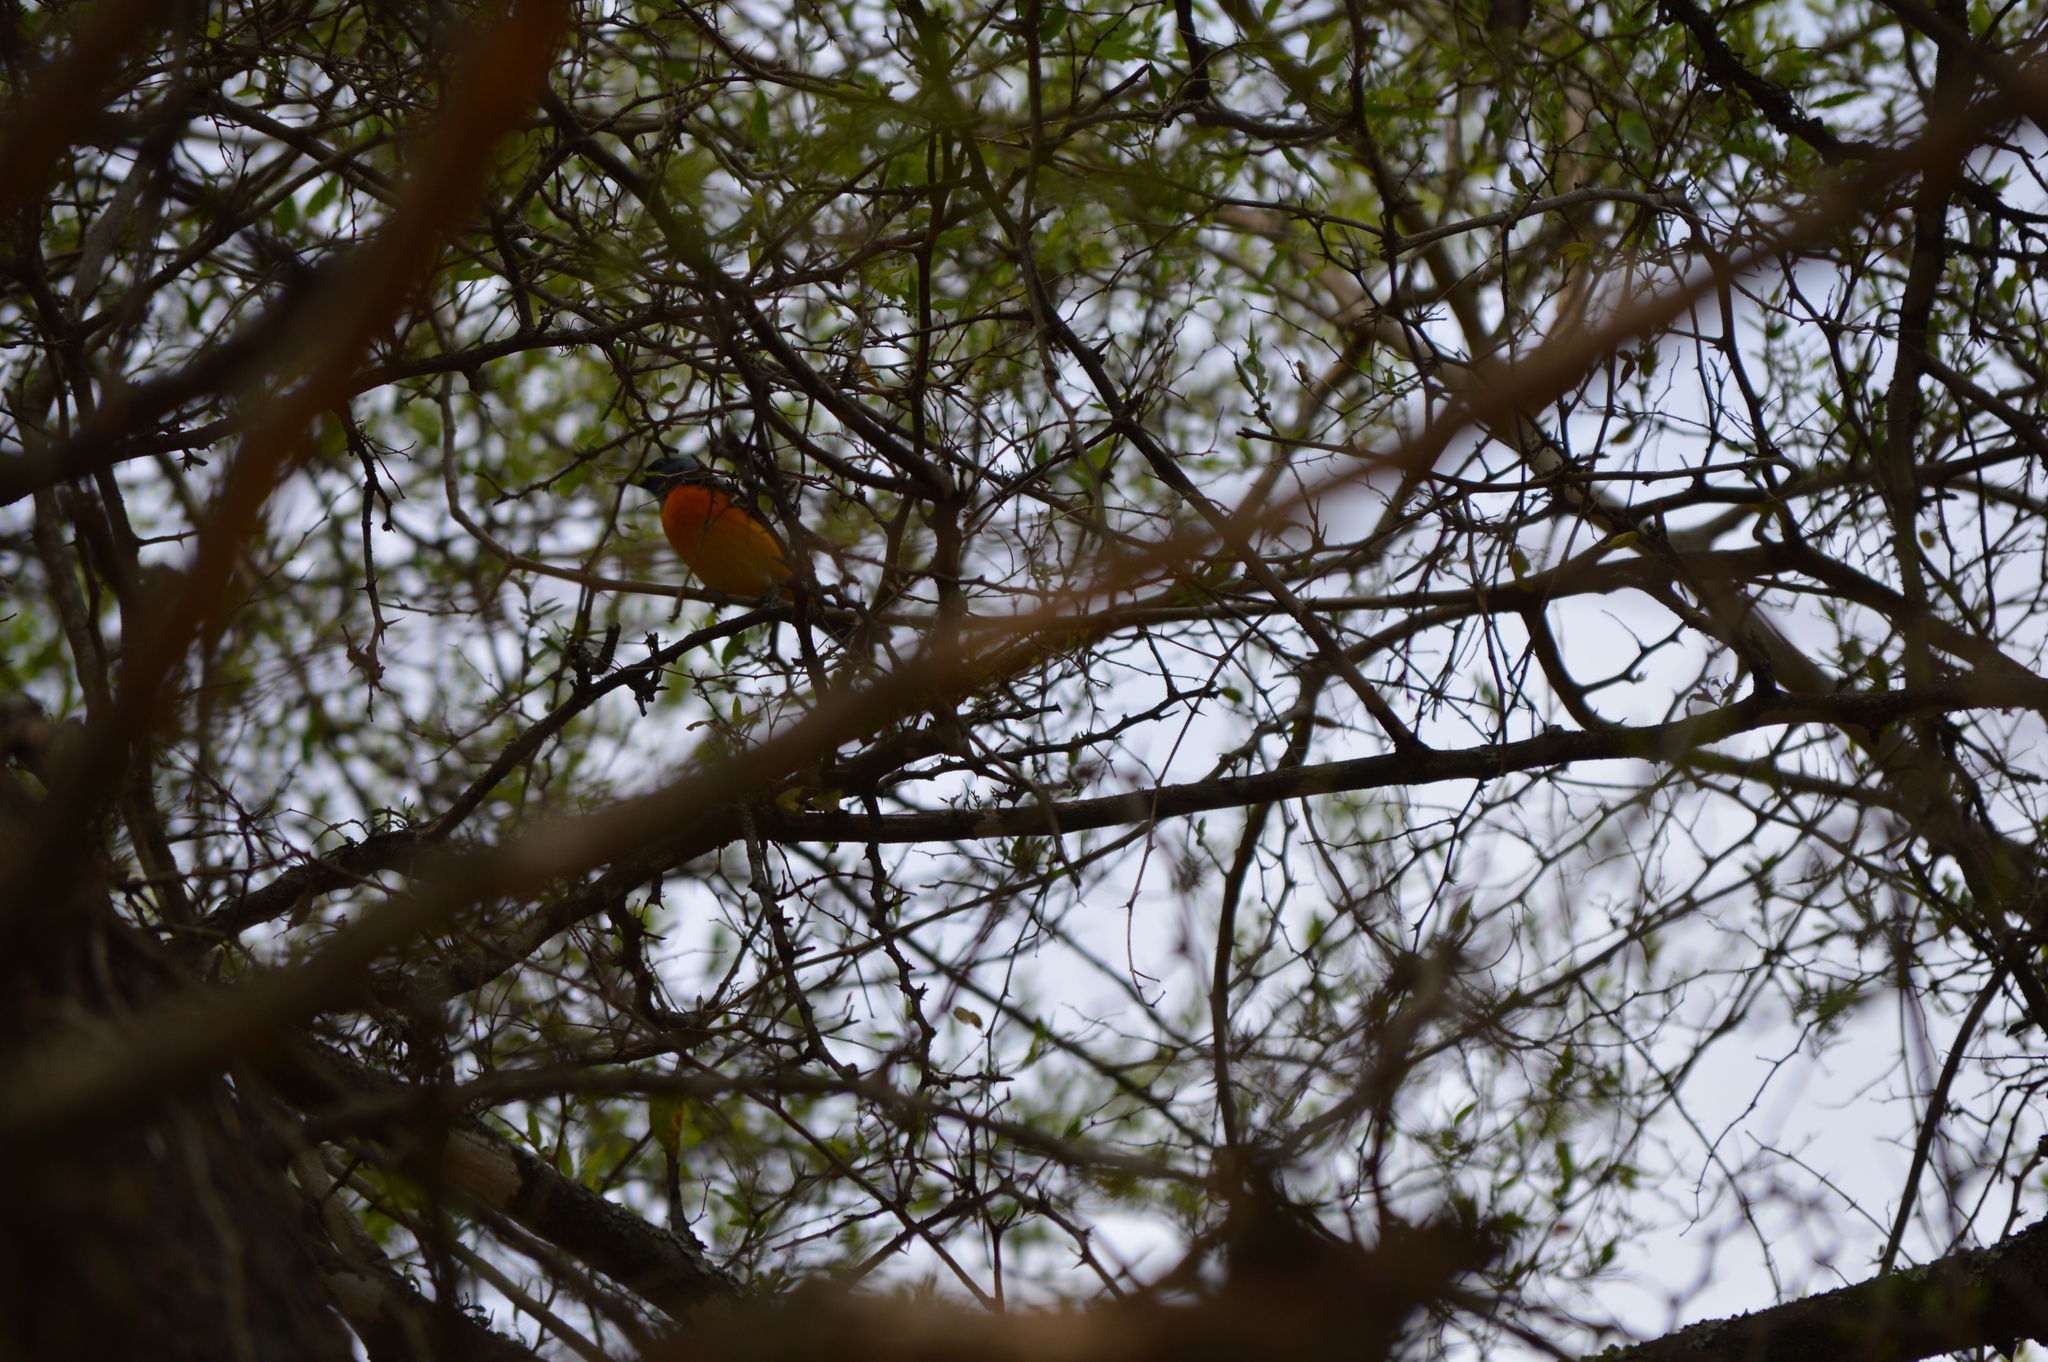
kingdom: Animalia
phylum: Chordata
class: Aves
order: Passeriformes
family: Thraupidae
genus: Rauenia
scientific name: Rauenia bonariensis
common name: Blue-and-yellow tanager
